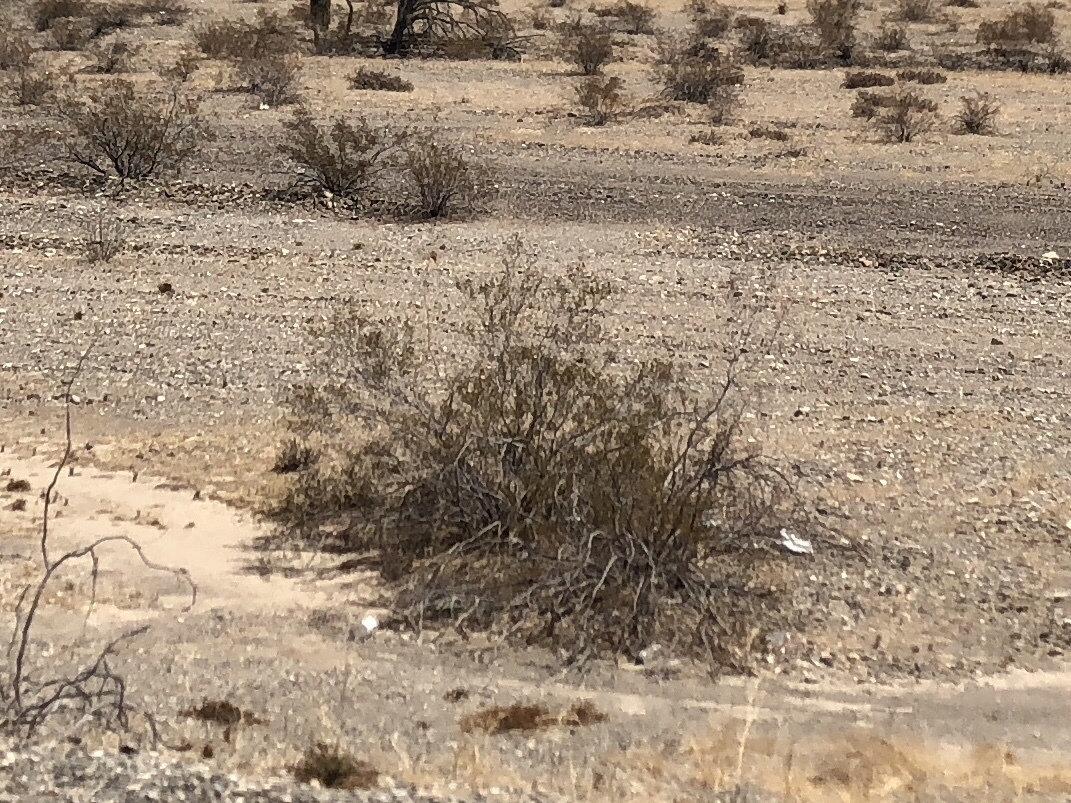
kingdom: Plantae
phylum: Tracheophyta
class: Magnoliopsida
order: Zygophyllales
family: Zygophyllaceae
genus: Larrea
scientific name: Larrea tridentata
